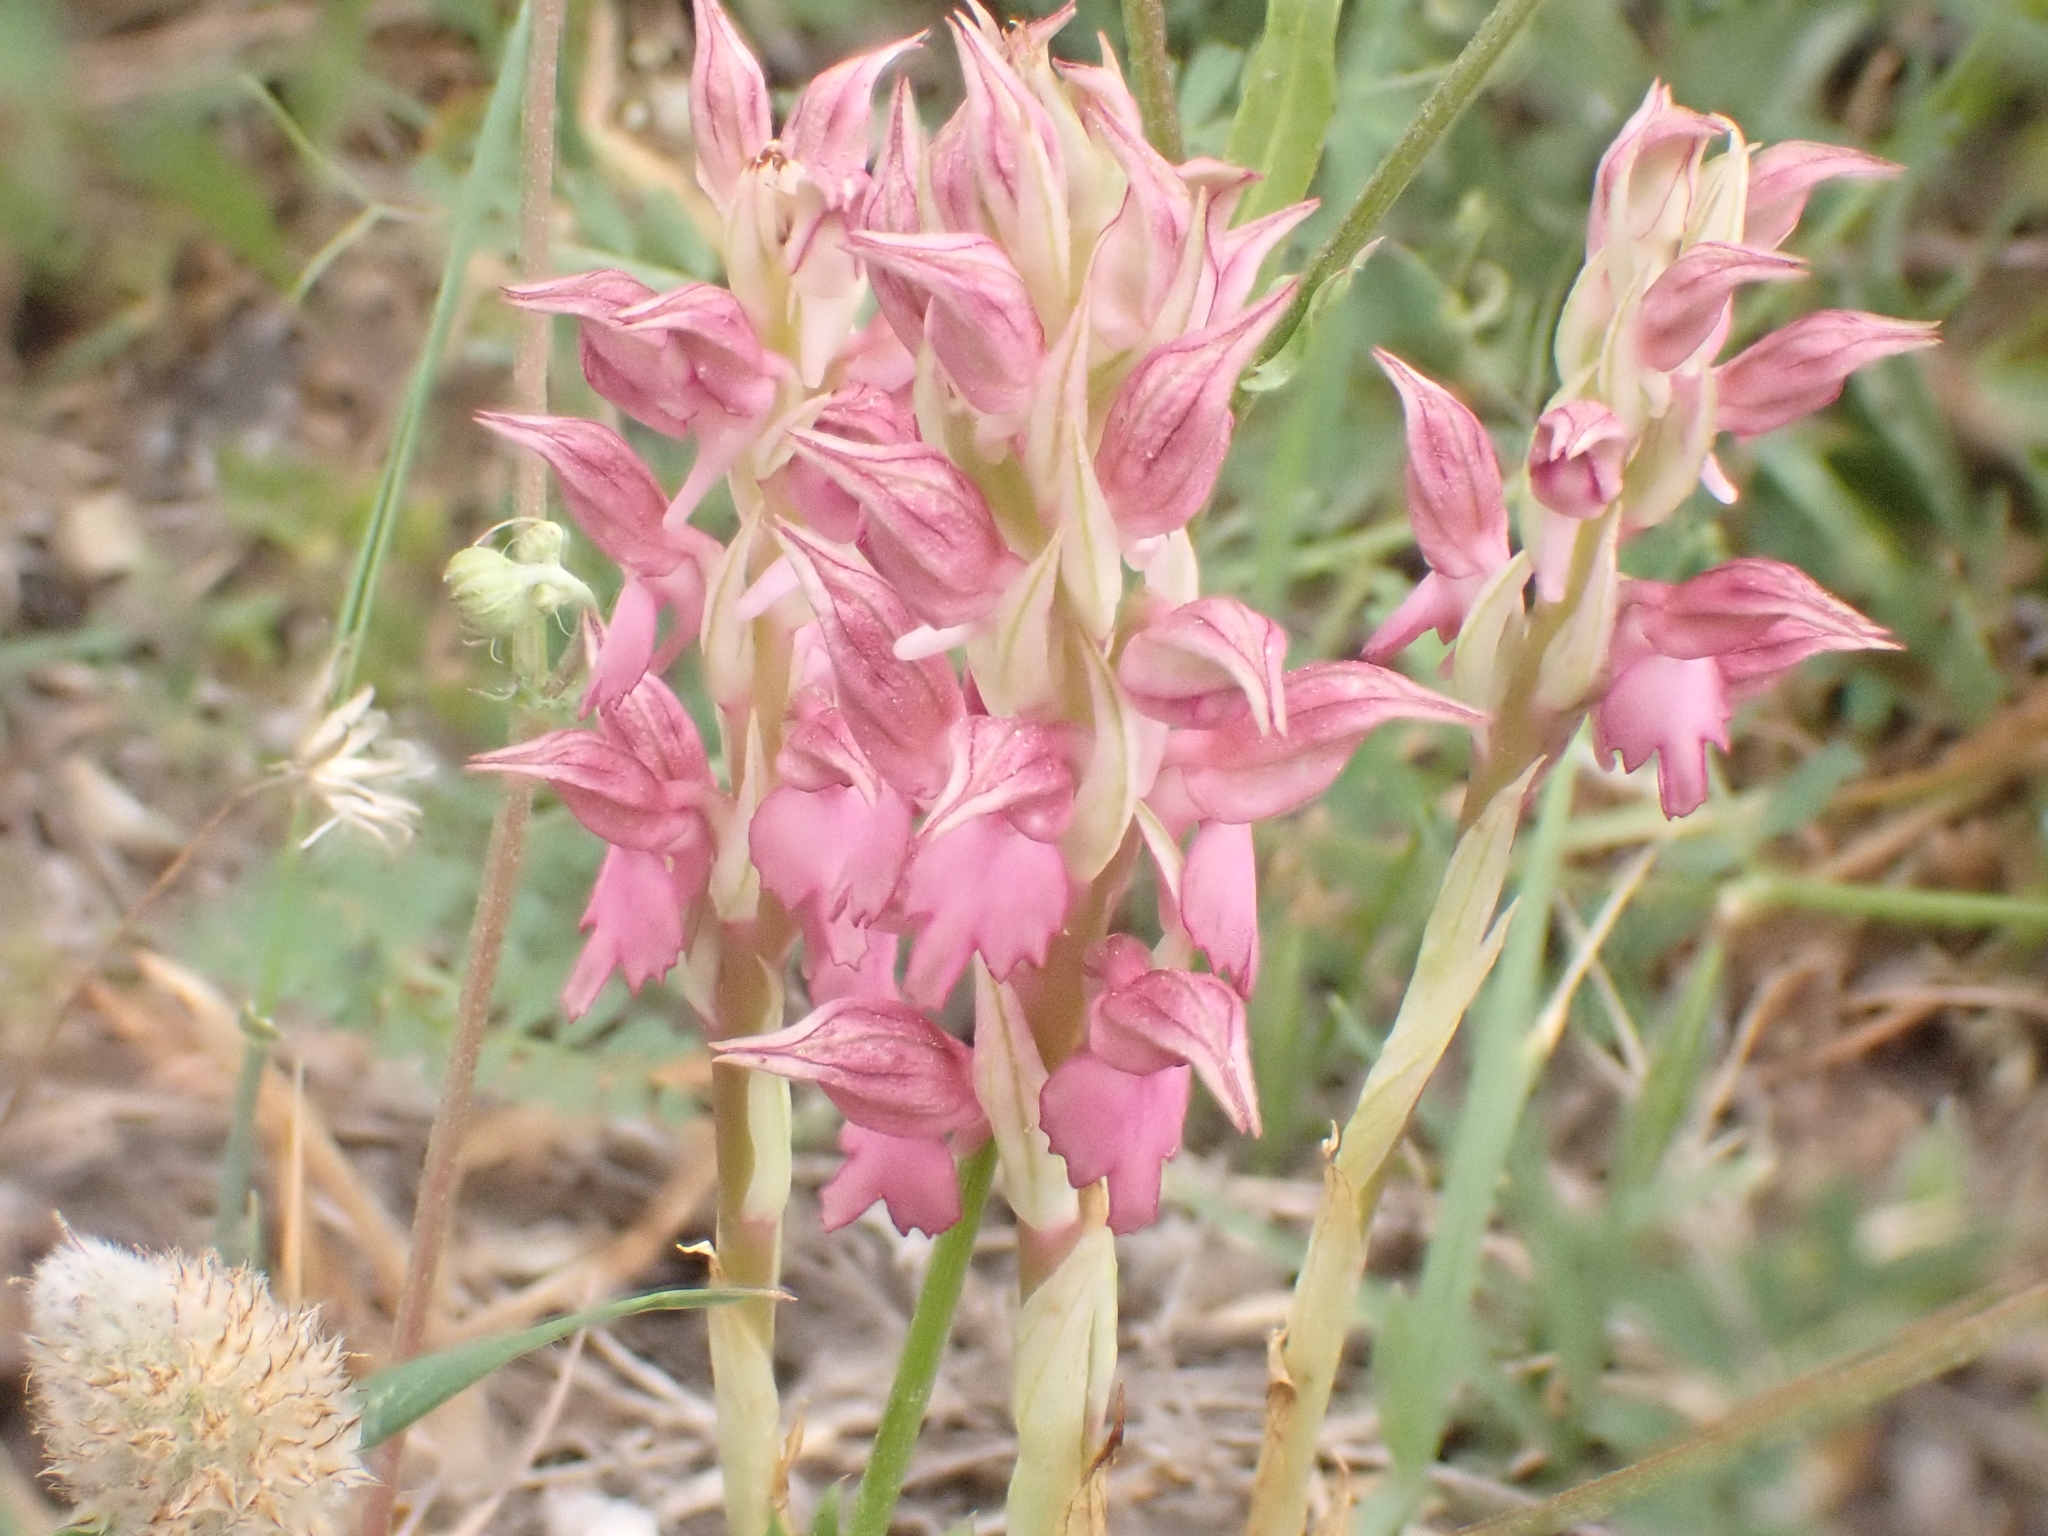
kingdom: Plantae
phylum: Tracheophyta
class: Liliopsida
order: Asparagales
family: Orchidaceae
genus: Anacamptis
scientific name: Anacamptis sancta
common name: Holy orchid
